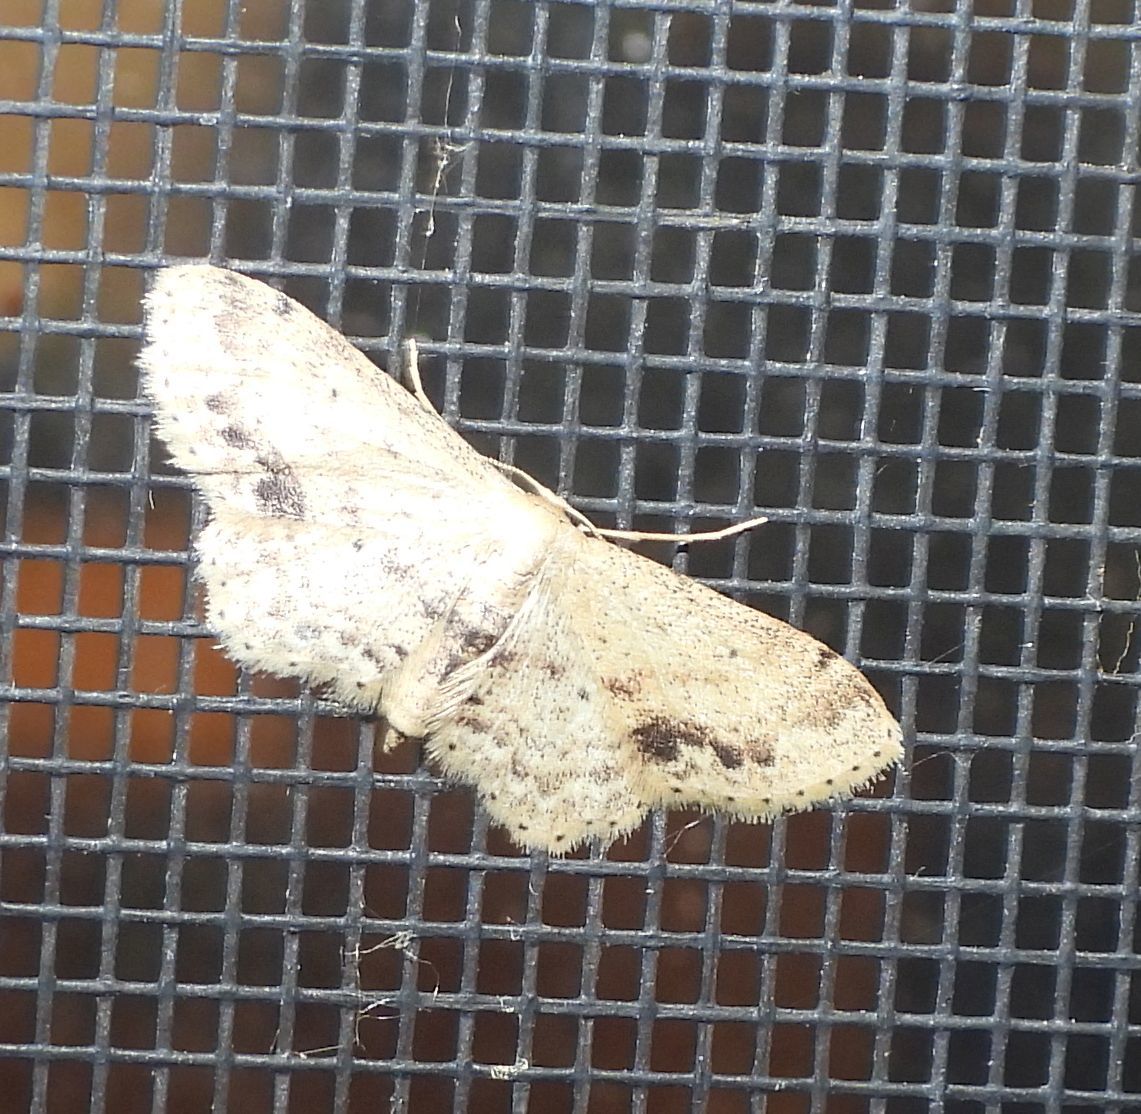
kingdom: Animalia
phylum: Arthropoda
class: Insecta
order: Lepidoptera
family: Geometridae
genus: Idaea
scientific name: Idaea dimidiata
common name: Single-dotted wave
